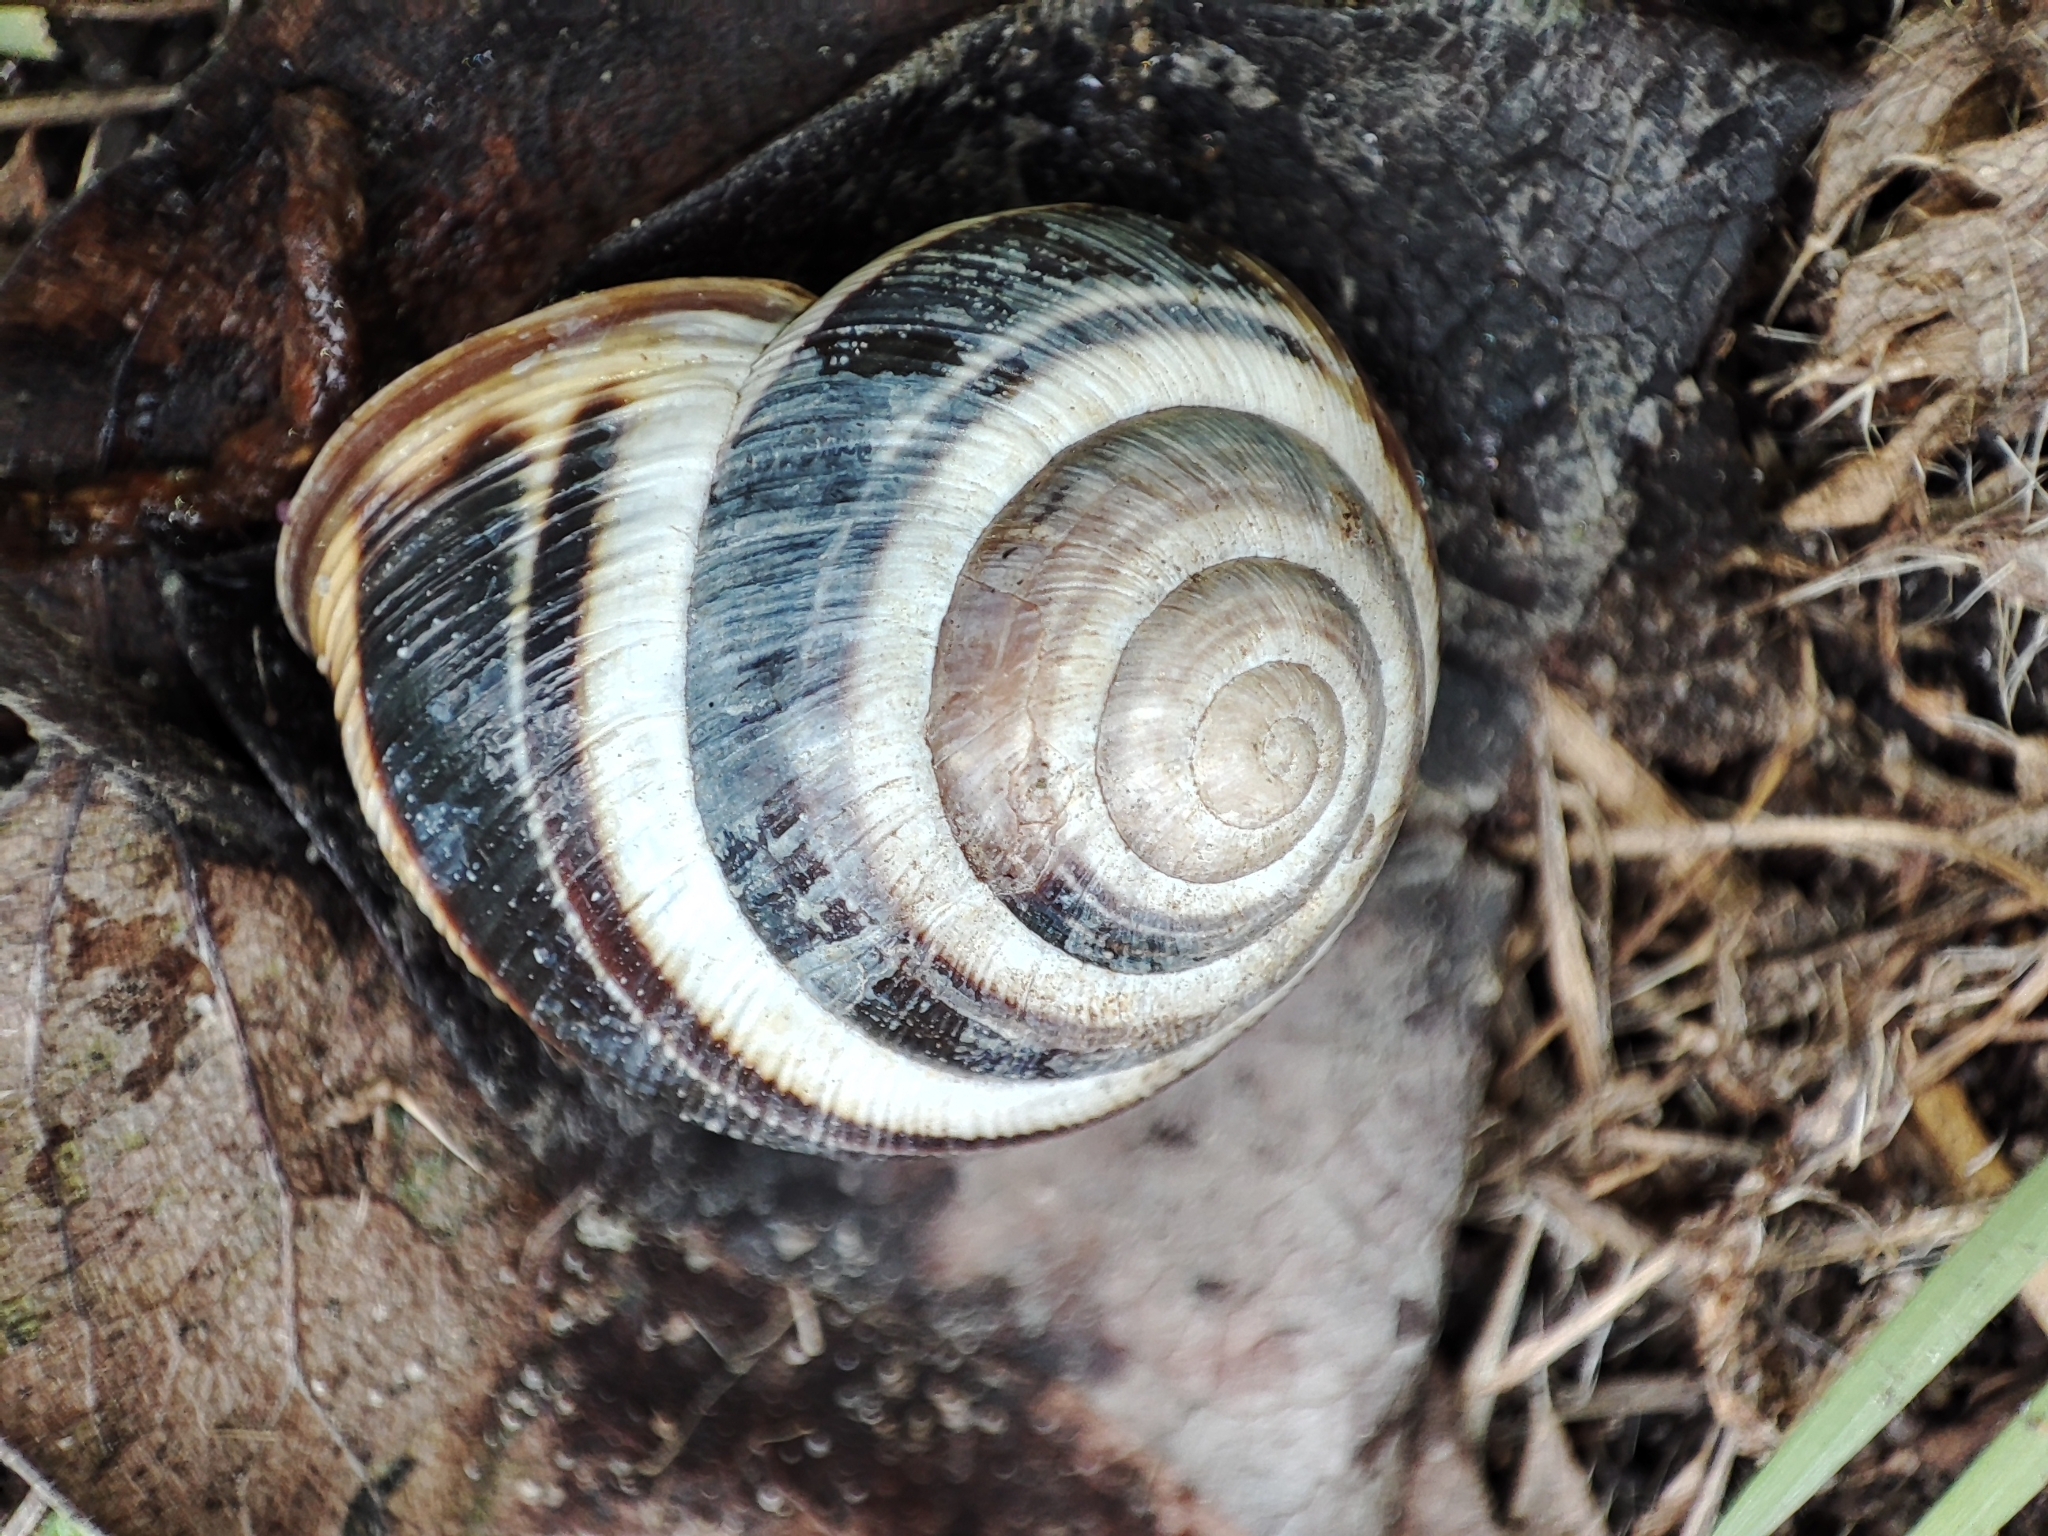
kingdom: Animalia
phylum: Mollusca
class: Gastropoda
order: Stylommatophora
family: Helicidae
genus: Caucasotachea
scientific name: Caucasotachea vindobonensis
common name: European helicid land snail
